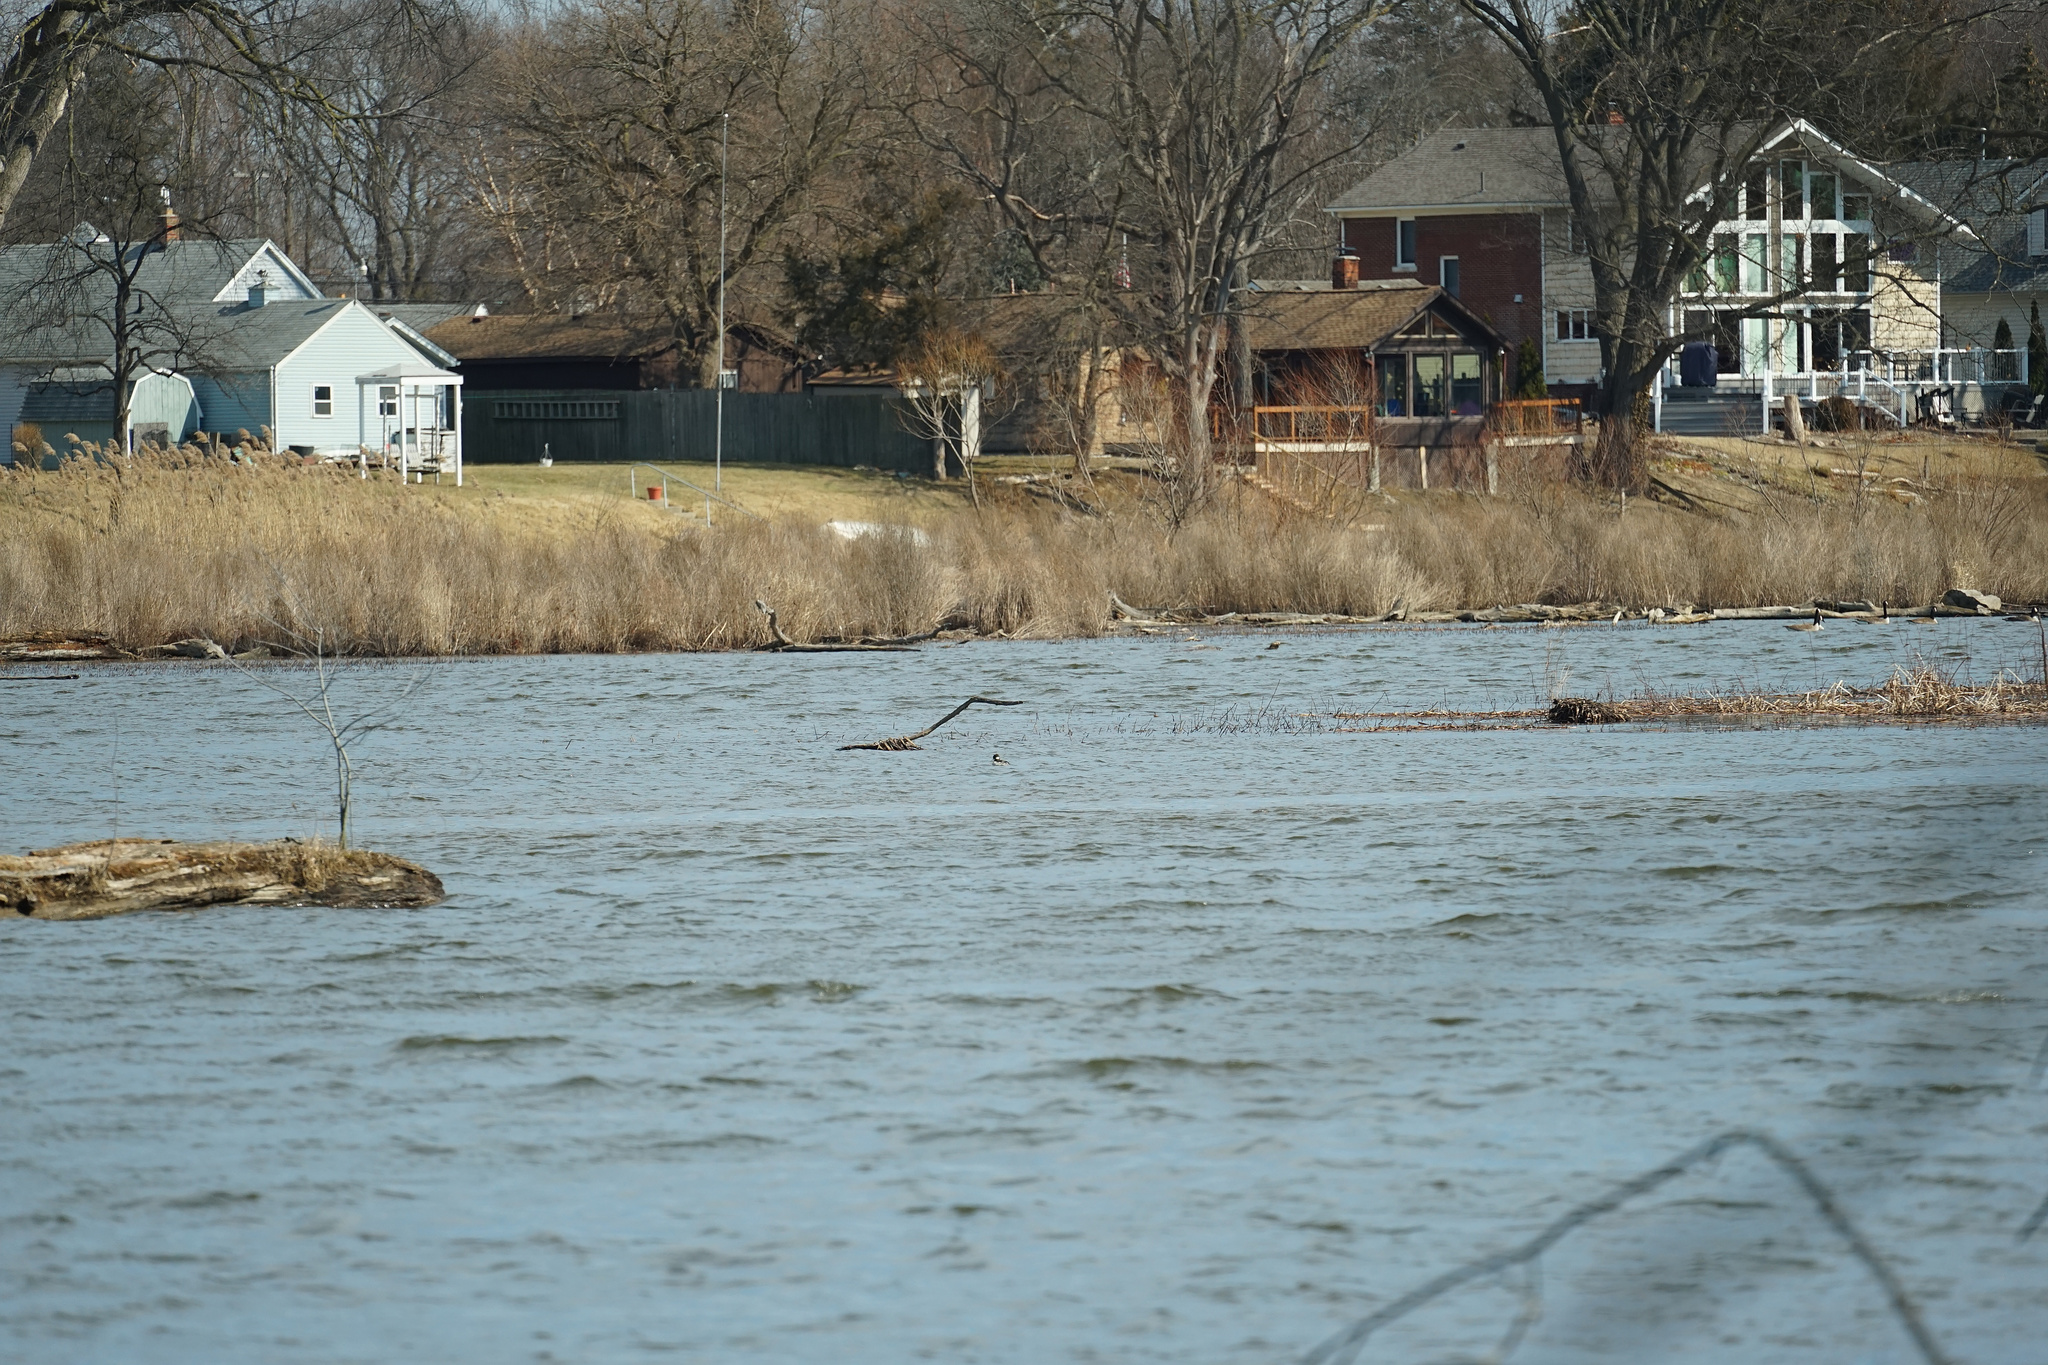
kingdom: Animalia
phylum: Chordata
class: Aves
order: Anseriformes
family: Anatidae
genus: Bucephala
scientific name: Bucephala albeola
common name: Bufflehead
